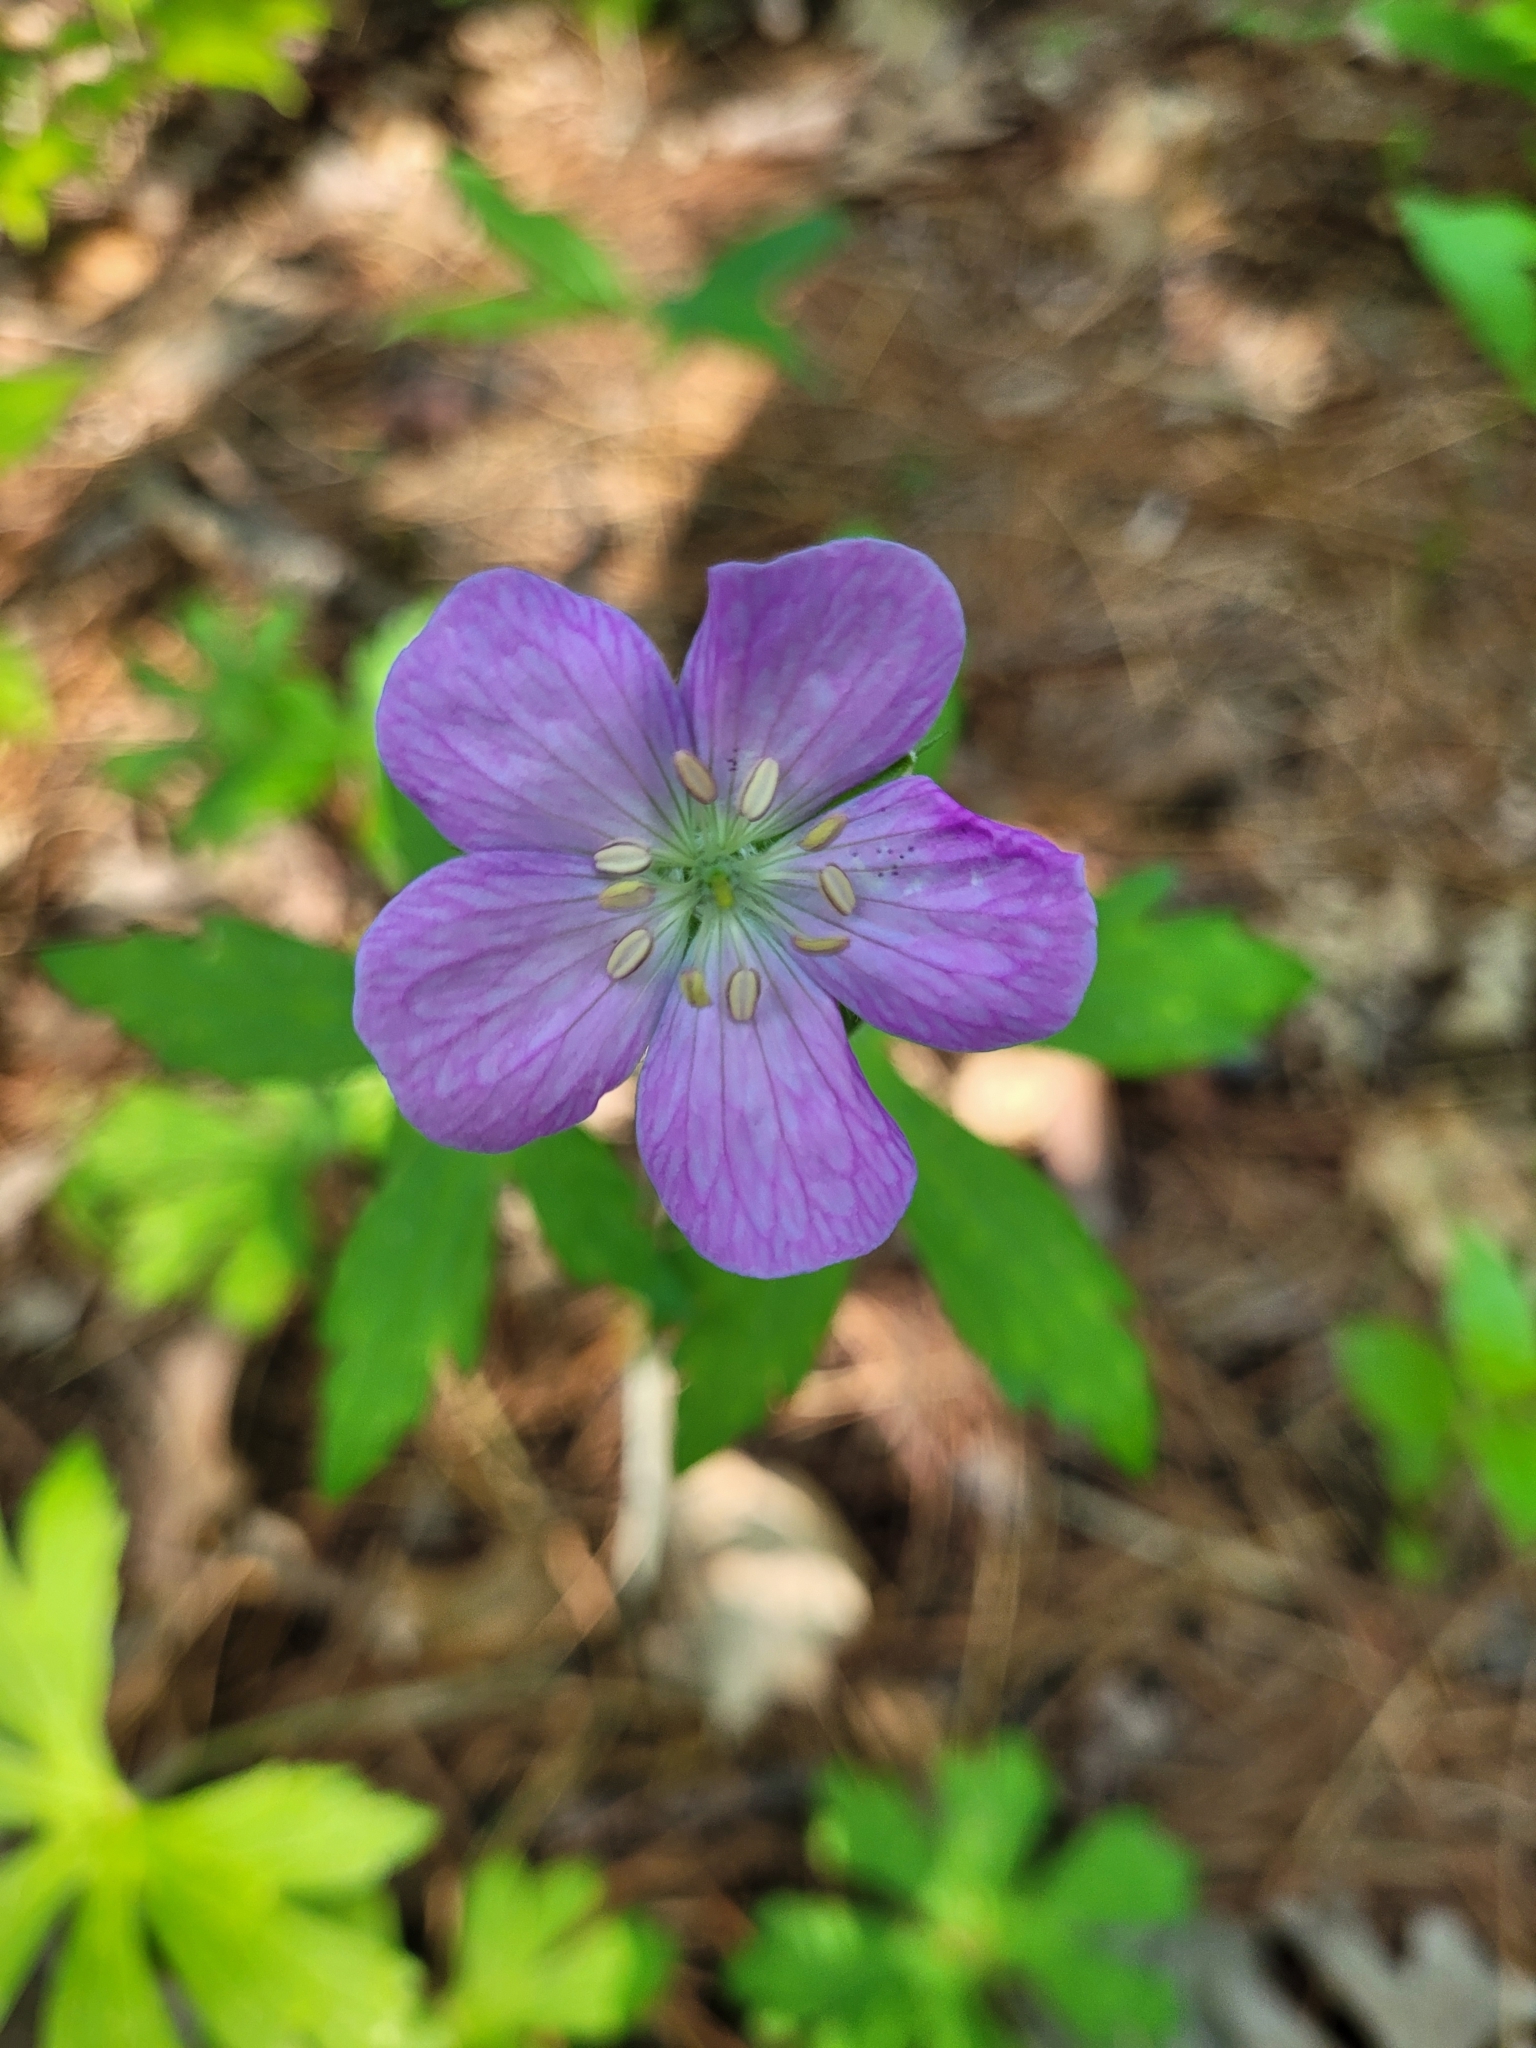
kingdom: Plantae
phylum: Tracheophyta
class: Magnoliopsida
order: Geraniales
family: Geraniaceae
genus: Geranium
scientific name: Geranium maculatum
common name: Spotted geranium
